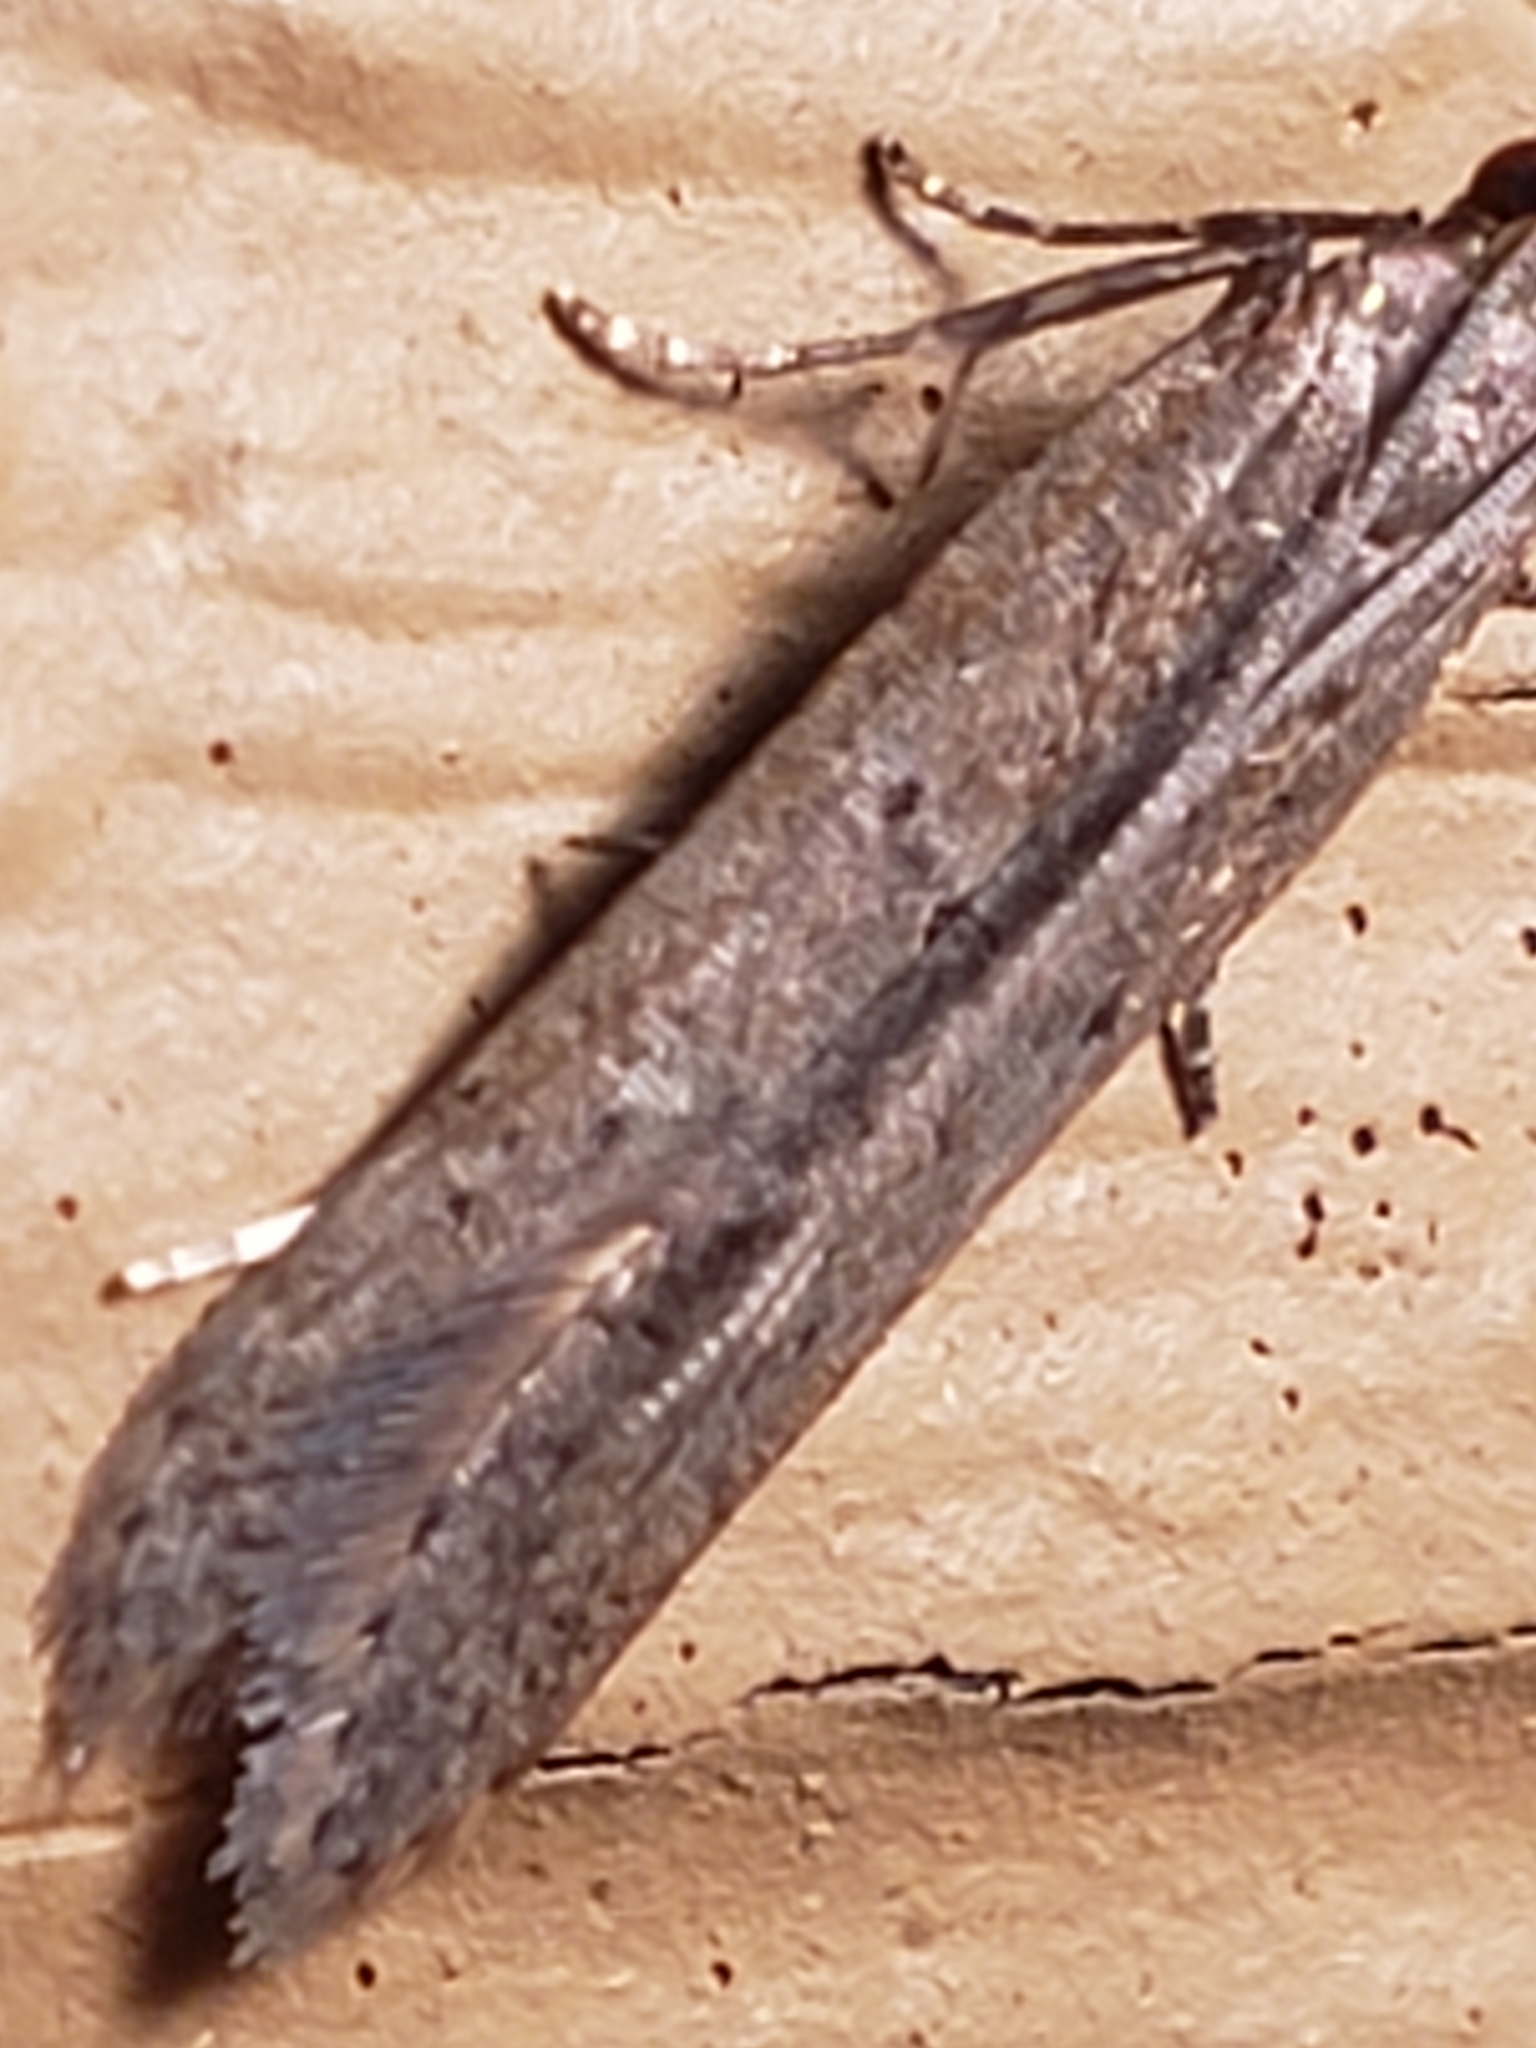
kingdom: Animalia
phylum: Arthropoda
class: Insecta
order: Lepidoptera
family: Gelechiidae
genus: Dichomeris
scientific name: Dichomeris ligulella
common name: Moth
